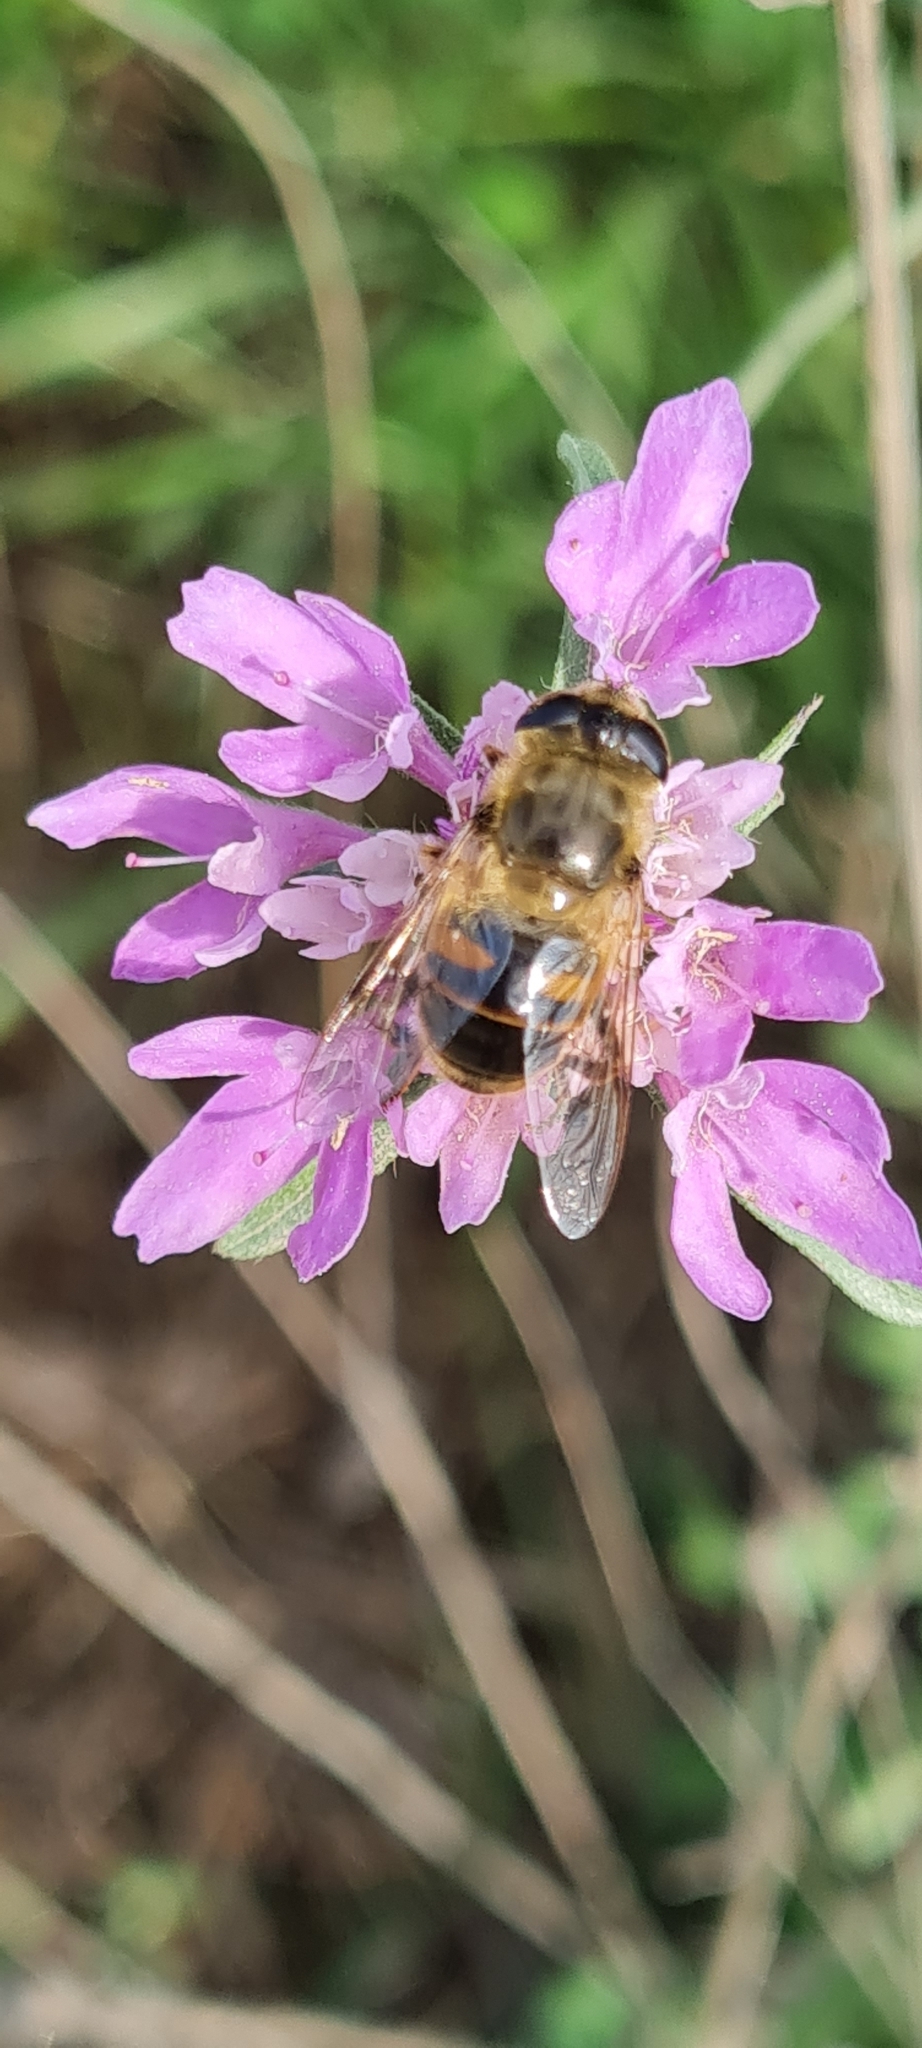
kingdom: Animalia
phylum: Arthropoda
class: Insecta
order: Diptera
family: Syrphidae
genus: Eristalis
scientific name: Eristalis tenax
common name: Drone fly
